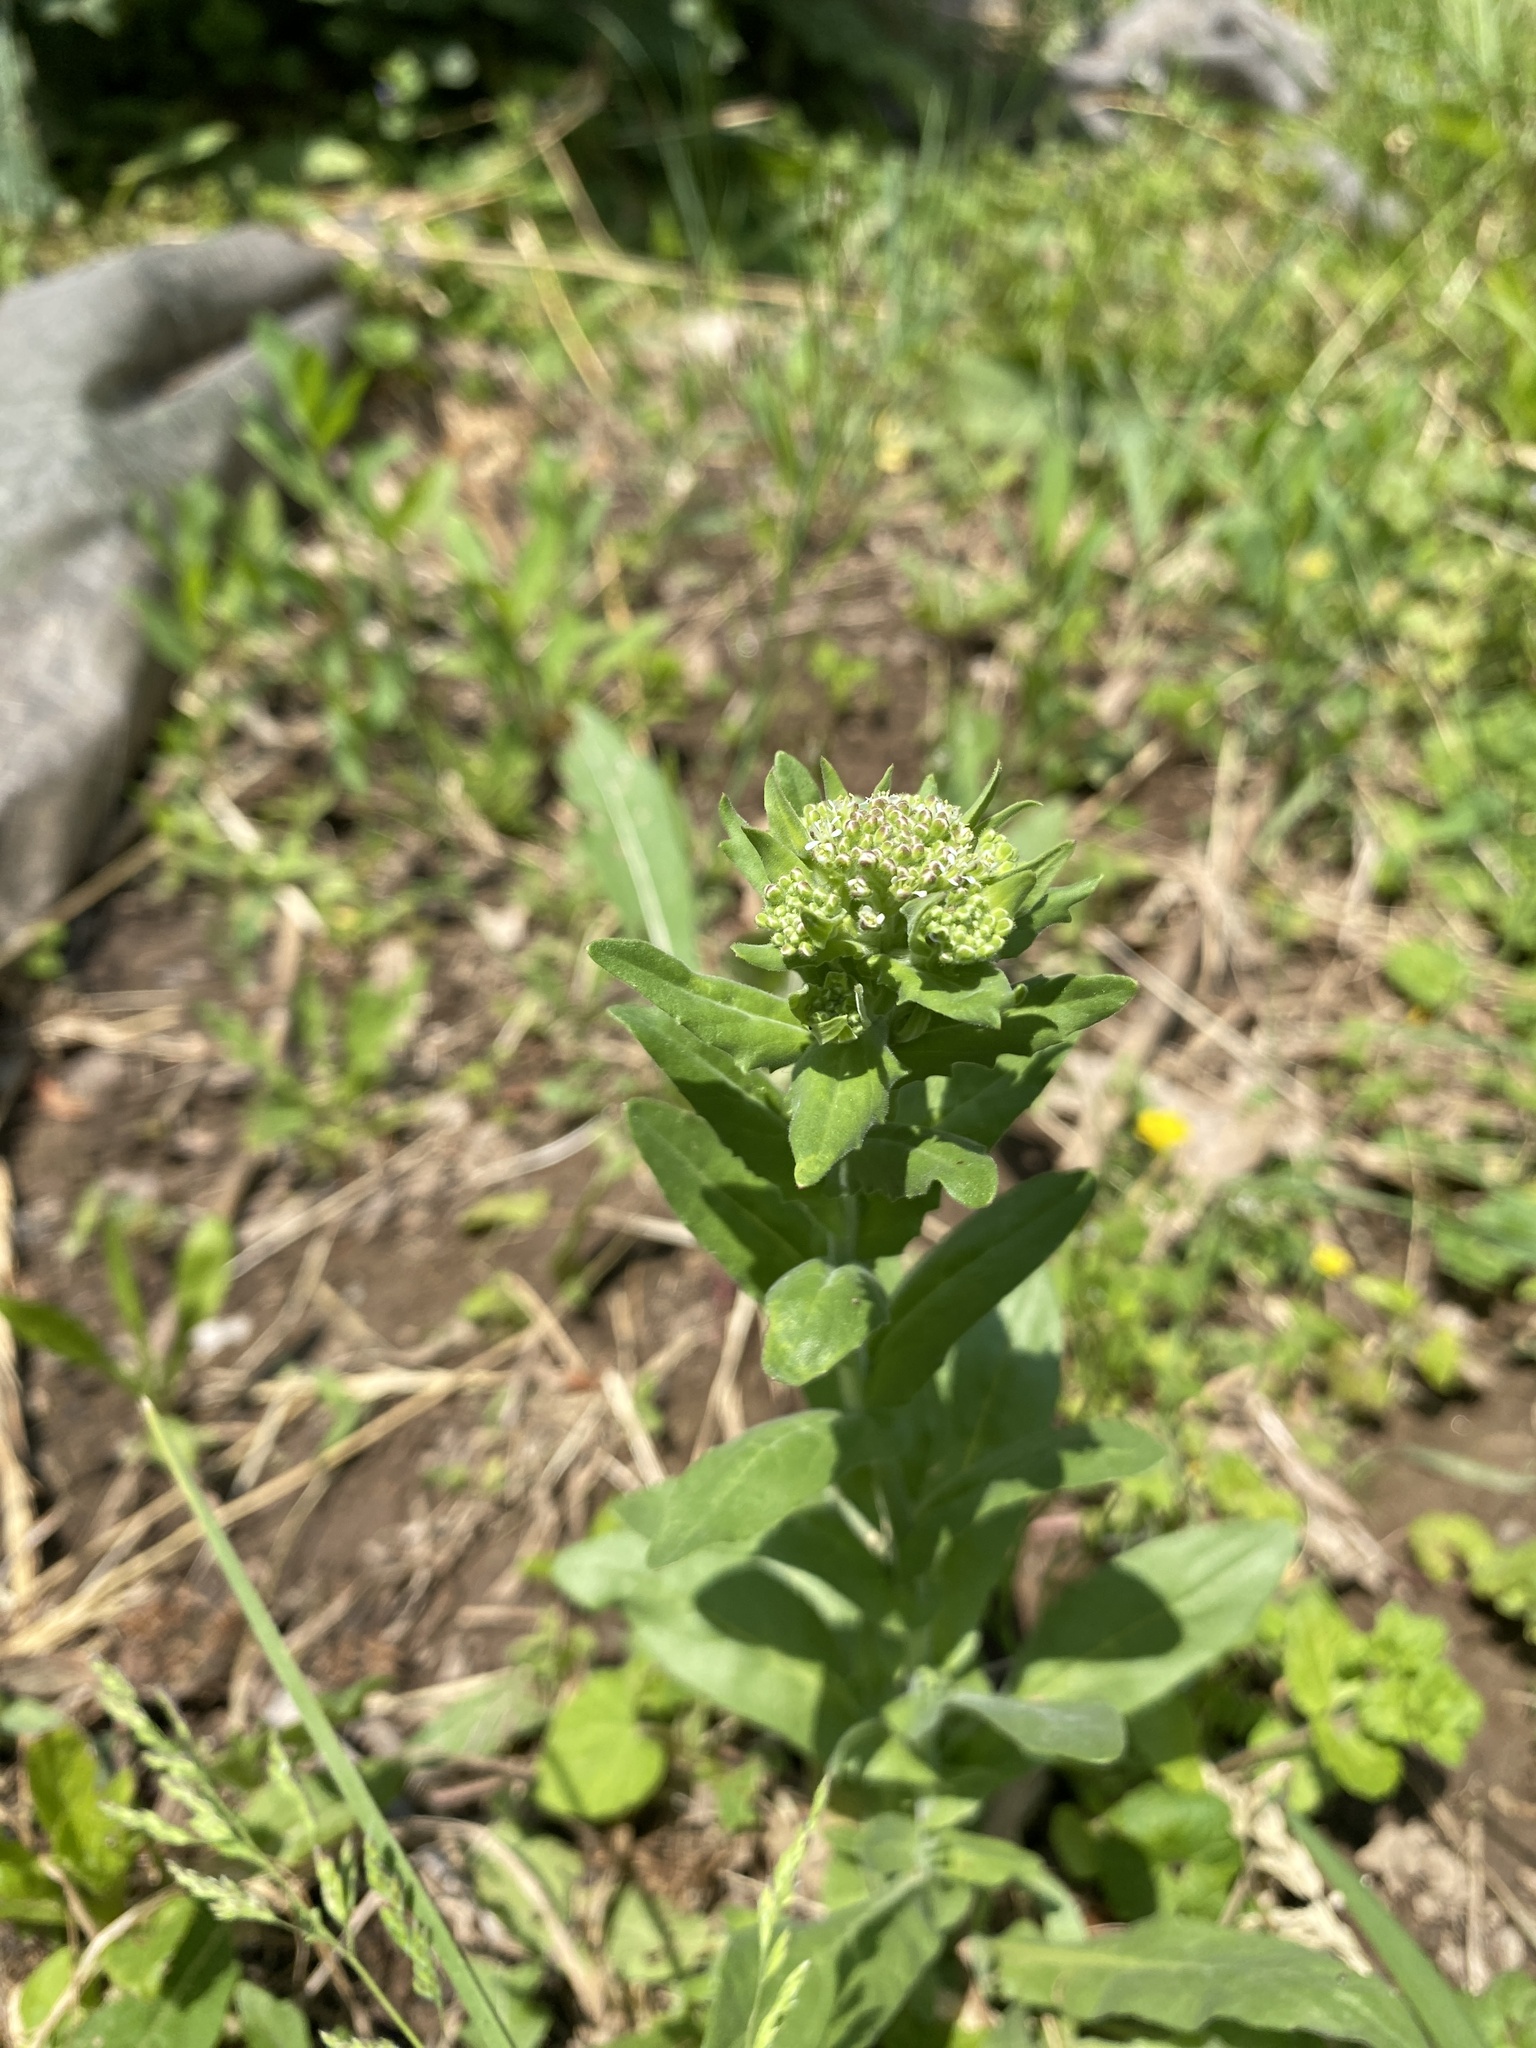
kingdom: Plantae
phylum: Tracheophyta
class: Magnoliopsida
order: Brassicales
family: Brassicaceae
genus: Lepidium
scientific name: Lepidium campestre
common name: Field pepperwort
